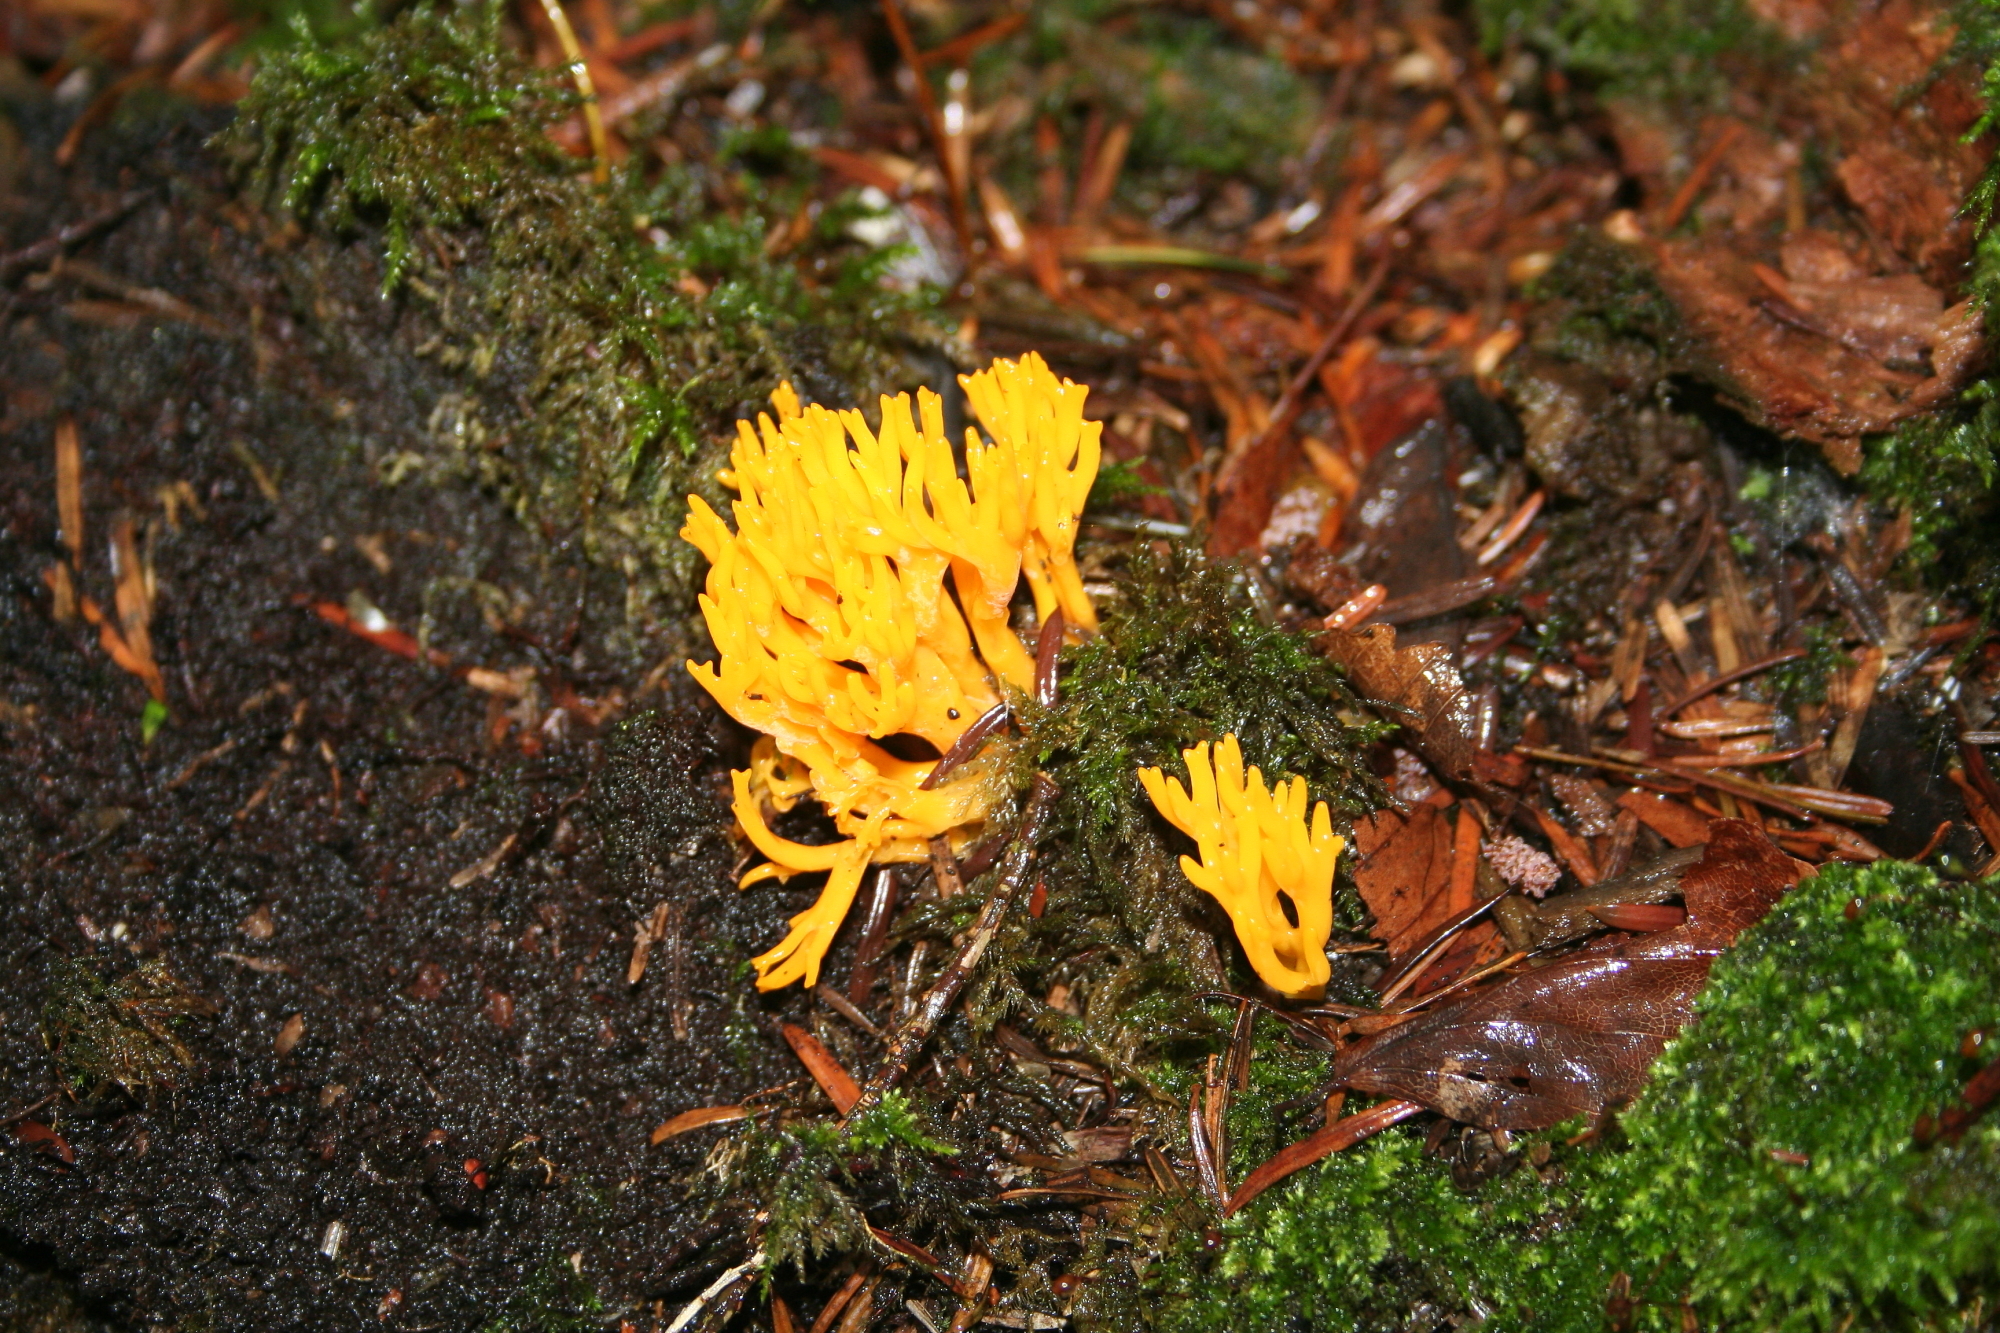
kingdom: Fungi
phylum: Basidiomycota
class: Dacrymycetes
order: Dacrymycetales
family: Dacrymycetaceae
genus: Calocera
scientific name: Calocera viscosa
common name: Yellow stagshorn
